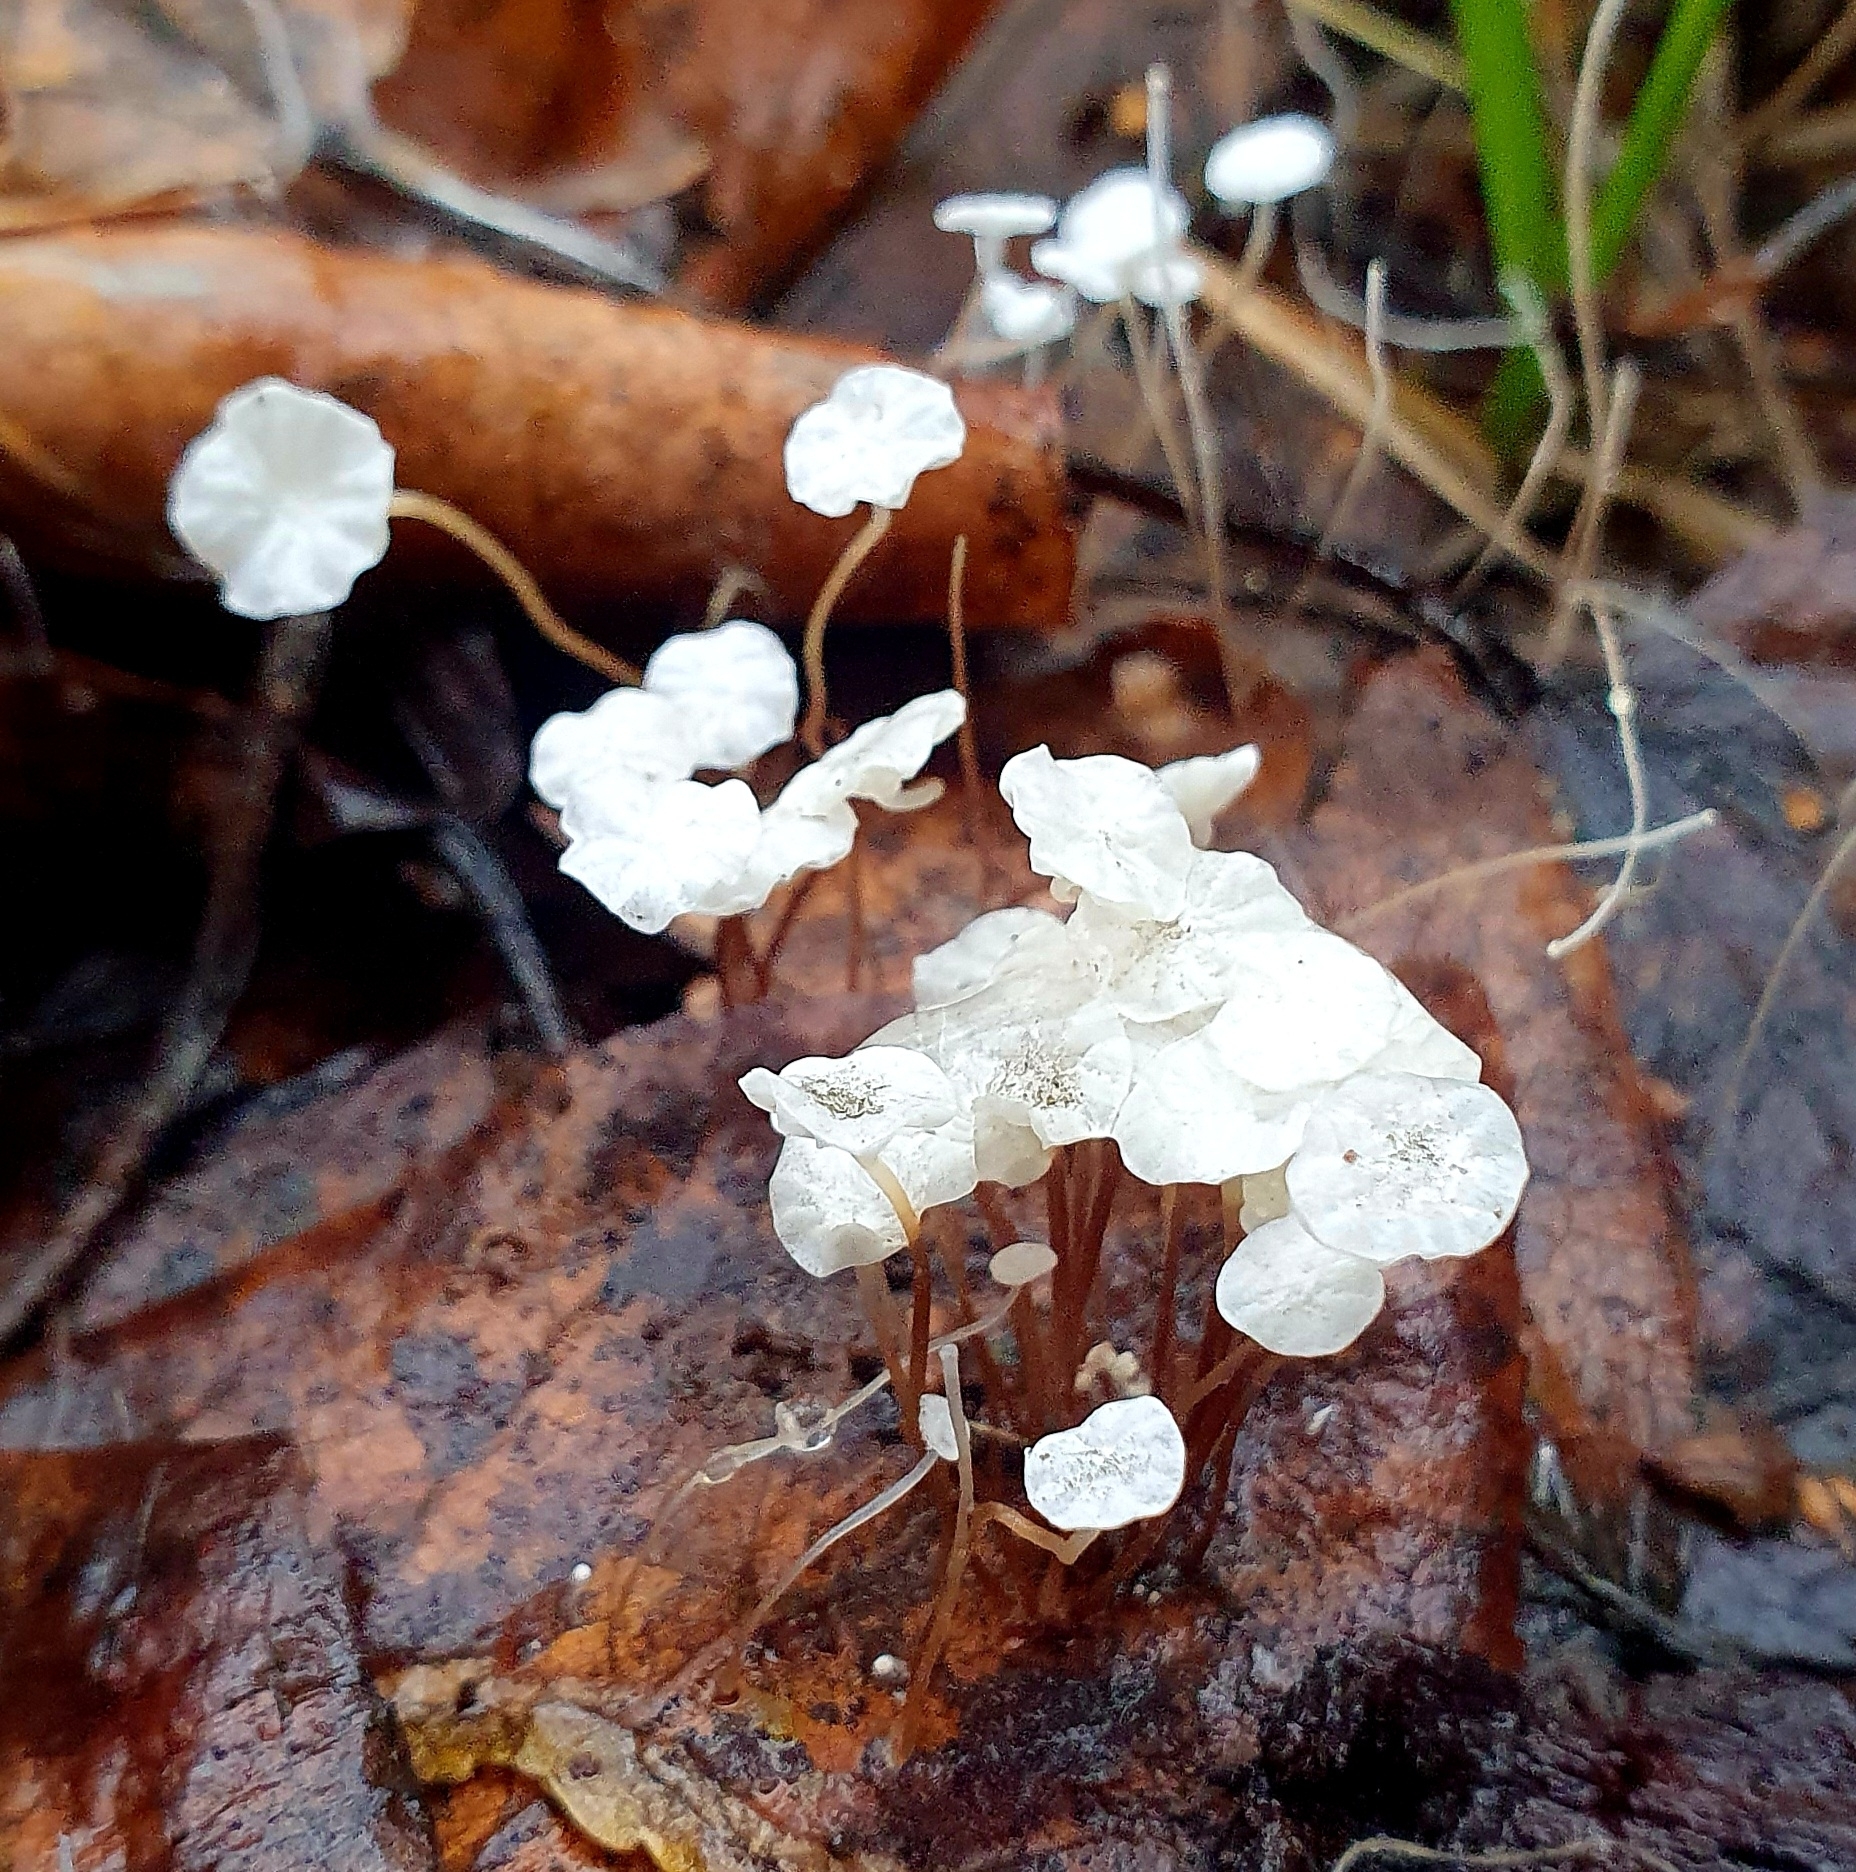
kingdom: Fungi
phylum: Basidiomycota
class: Agaricomycetes
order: Agaricales
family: Physalacriaceae
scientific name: Physalacriaceae
